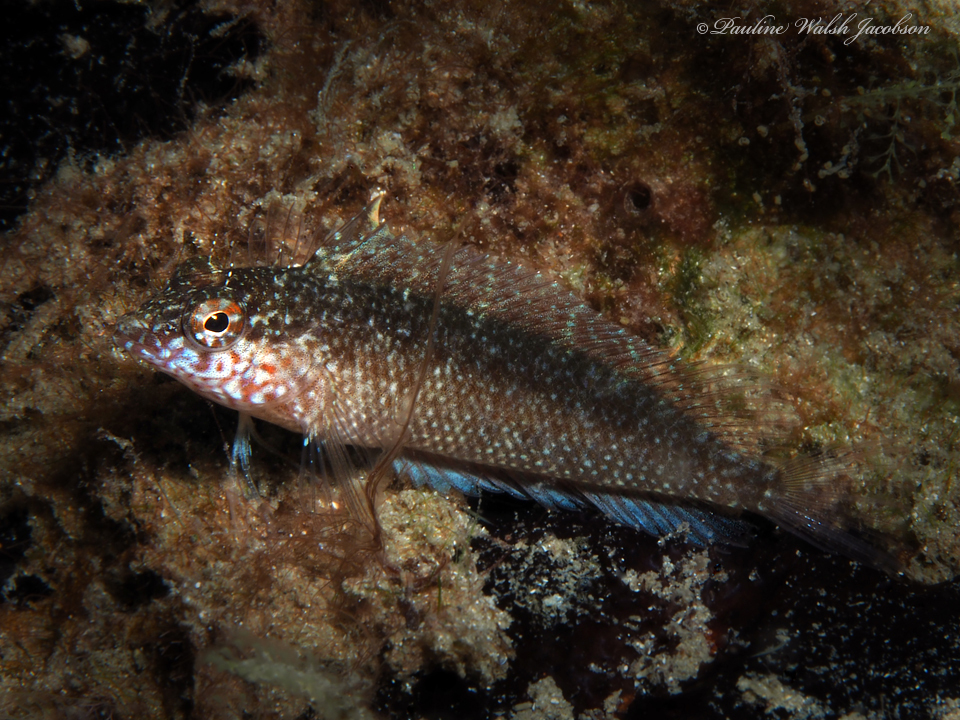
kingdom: Animalia
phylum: Chordata
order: Perciformes
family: Labrisomidae
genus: Malacoctenus
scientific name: Malacoctenus macropus
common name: Rosy blenny
